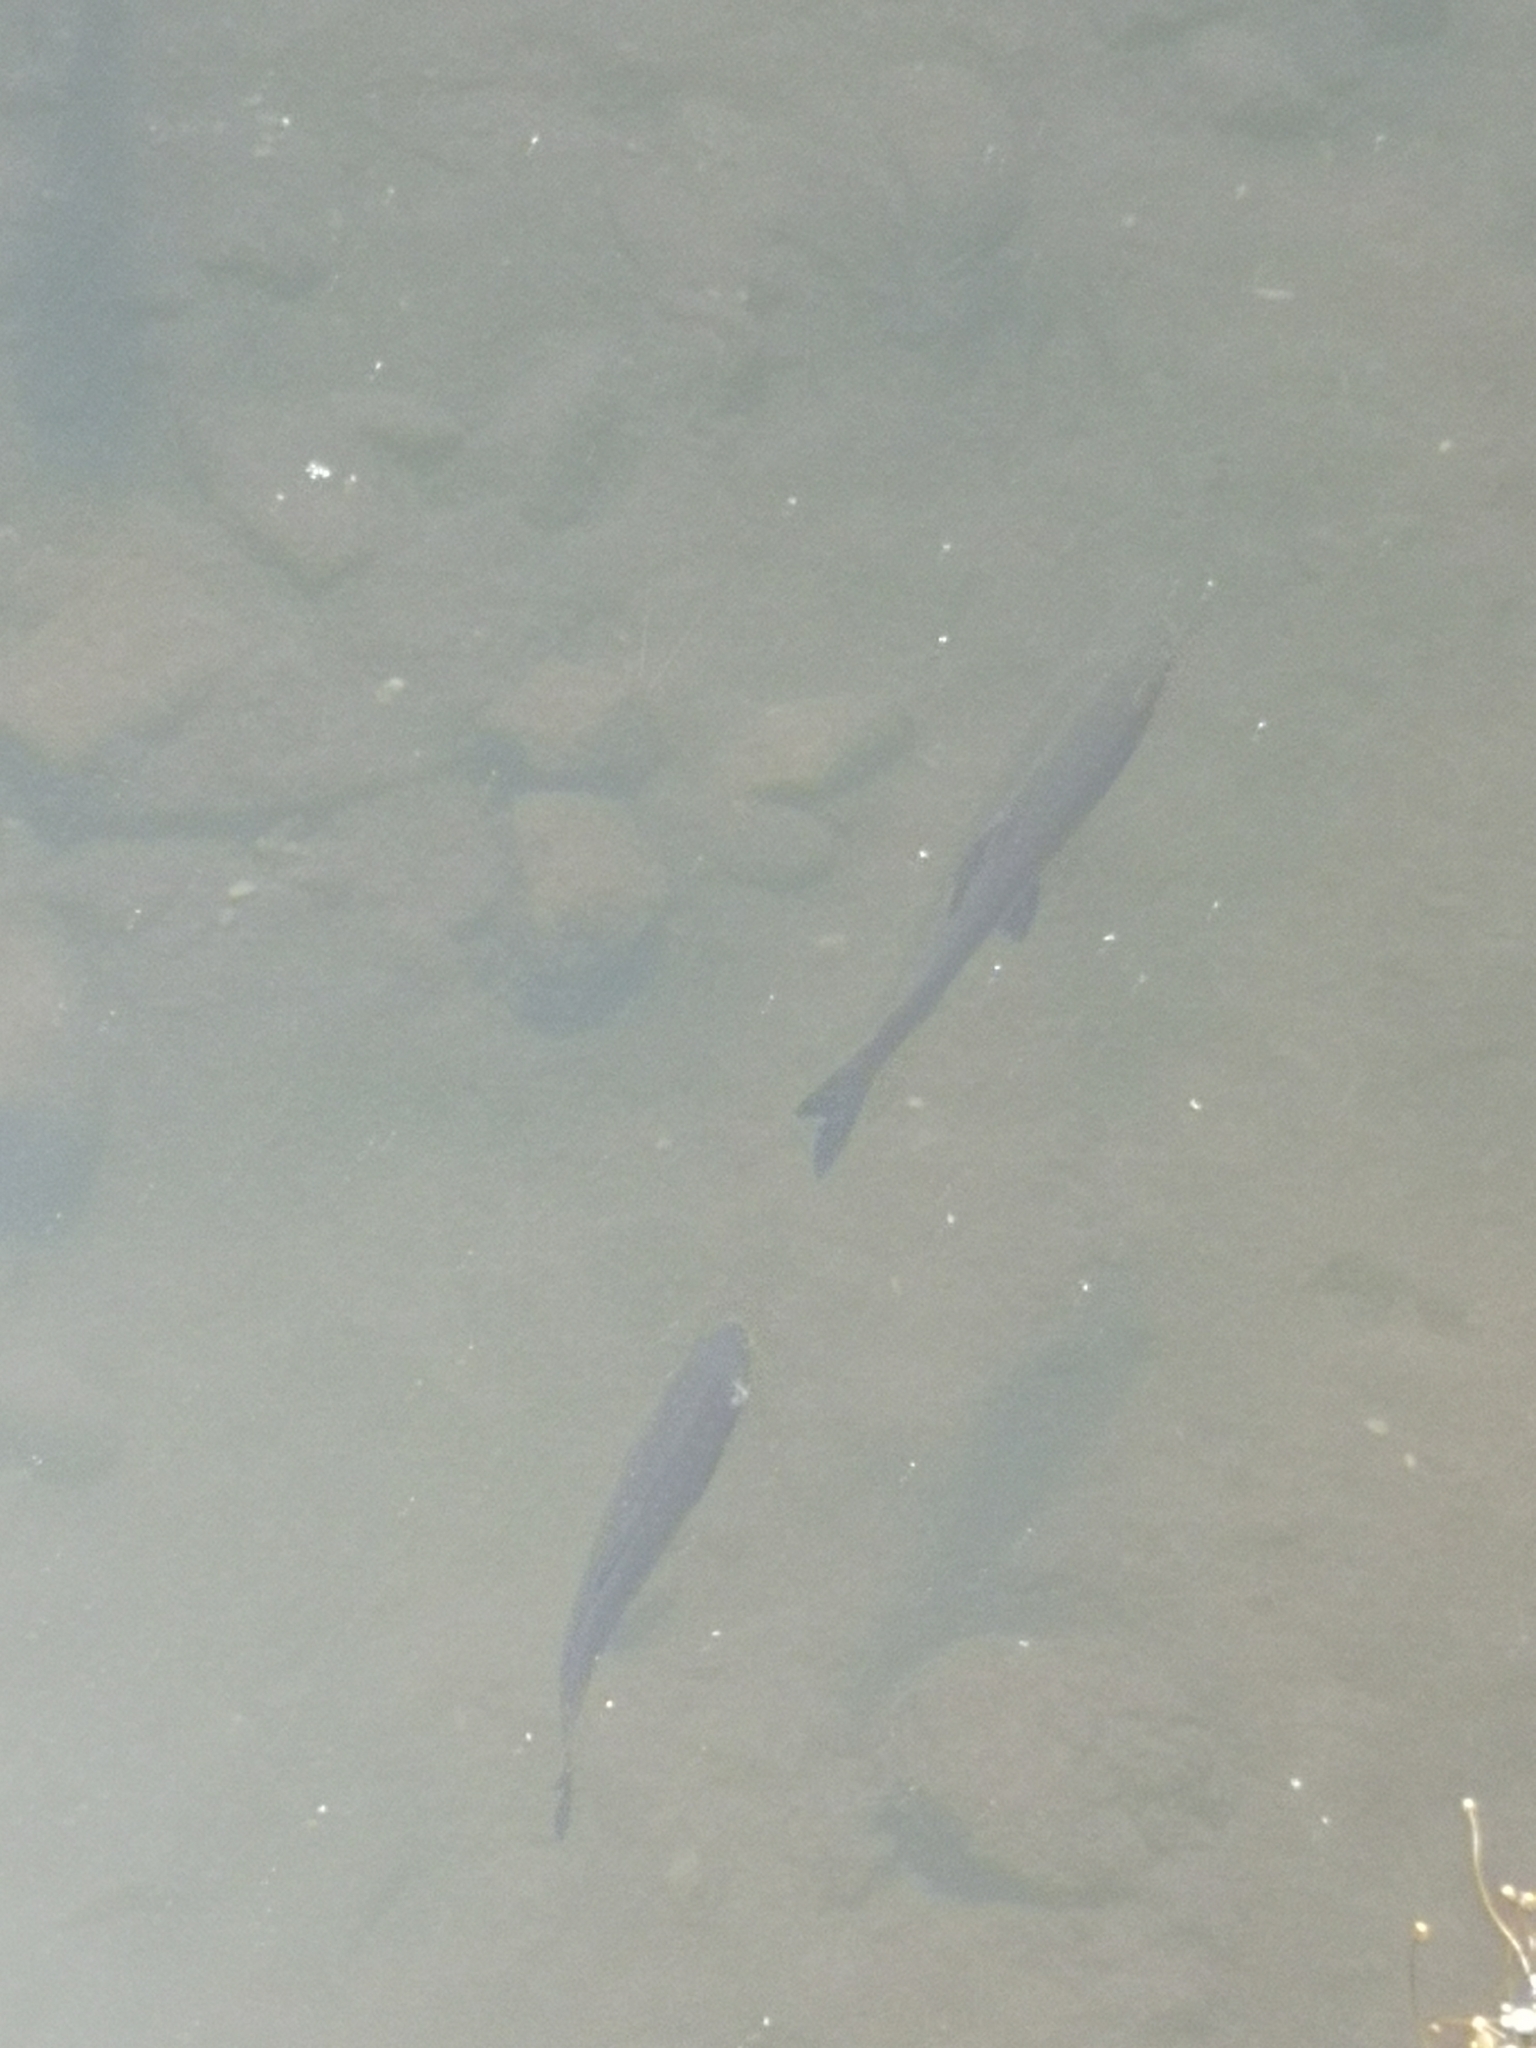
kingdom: Animalia
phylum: Chordata
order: Cypriniformes
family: Cyprinidae
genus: Squalius
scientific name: Squalius squalus
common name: Italian chub
